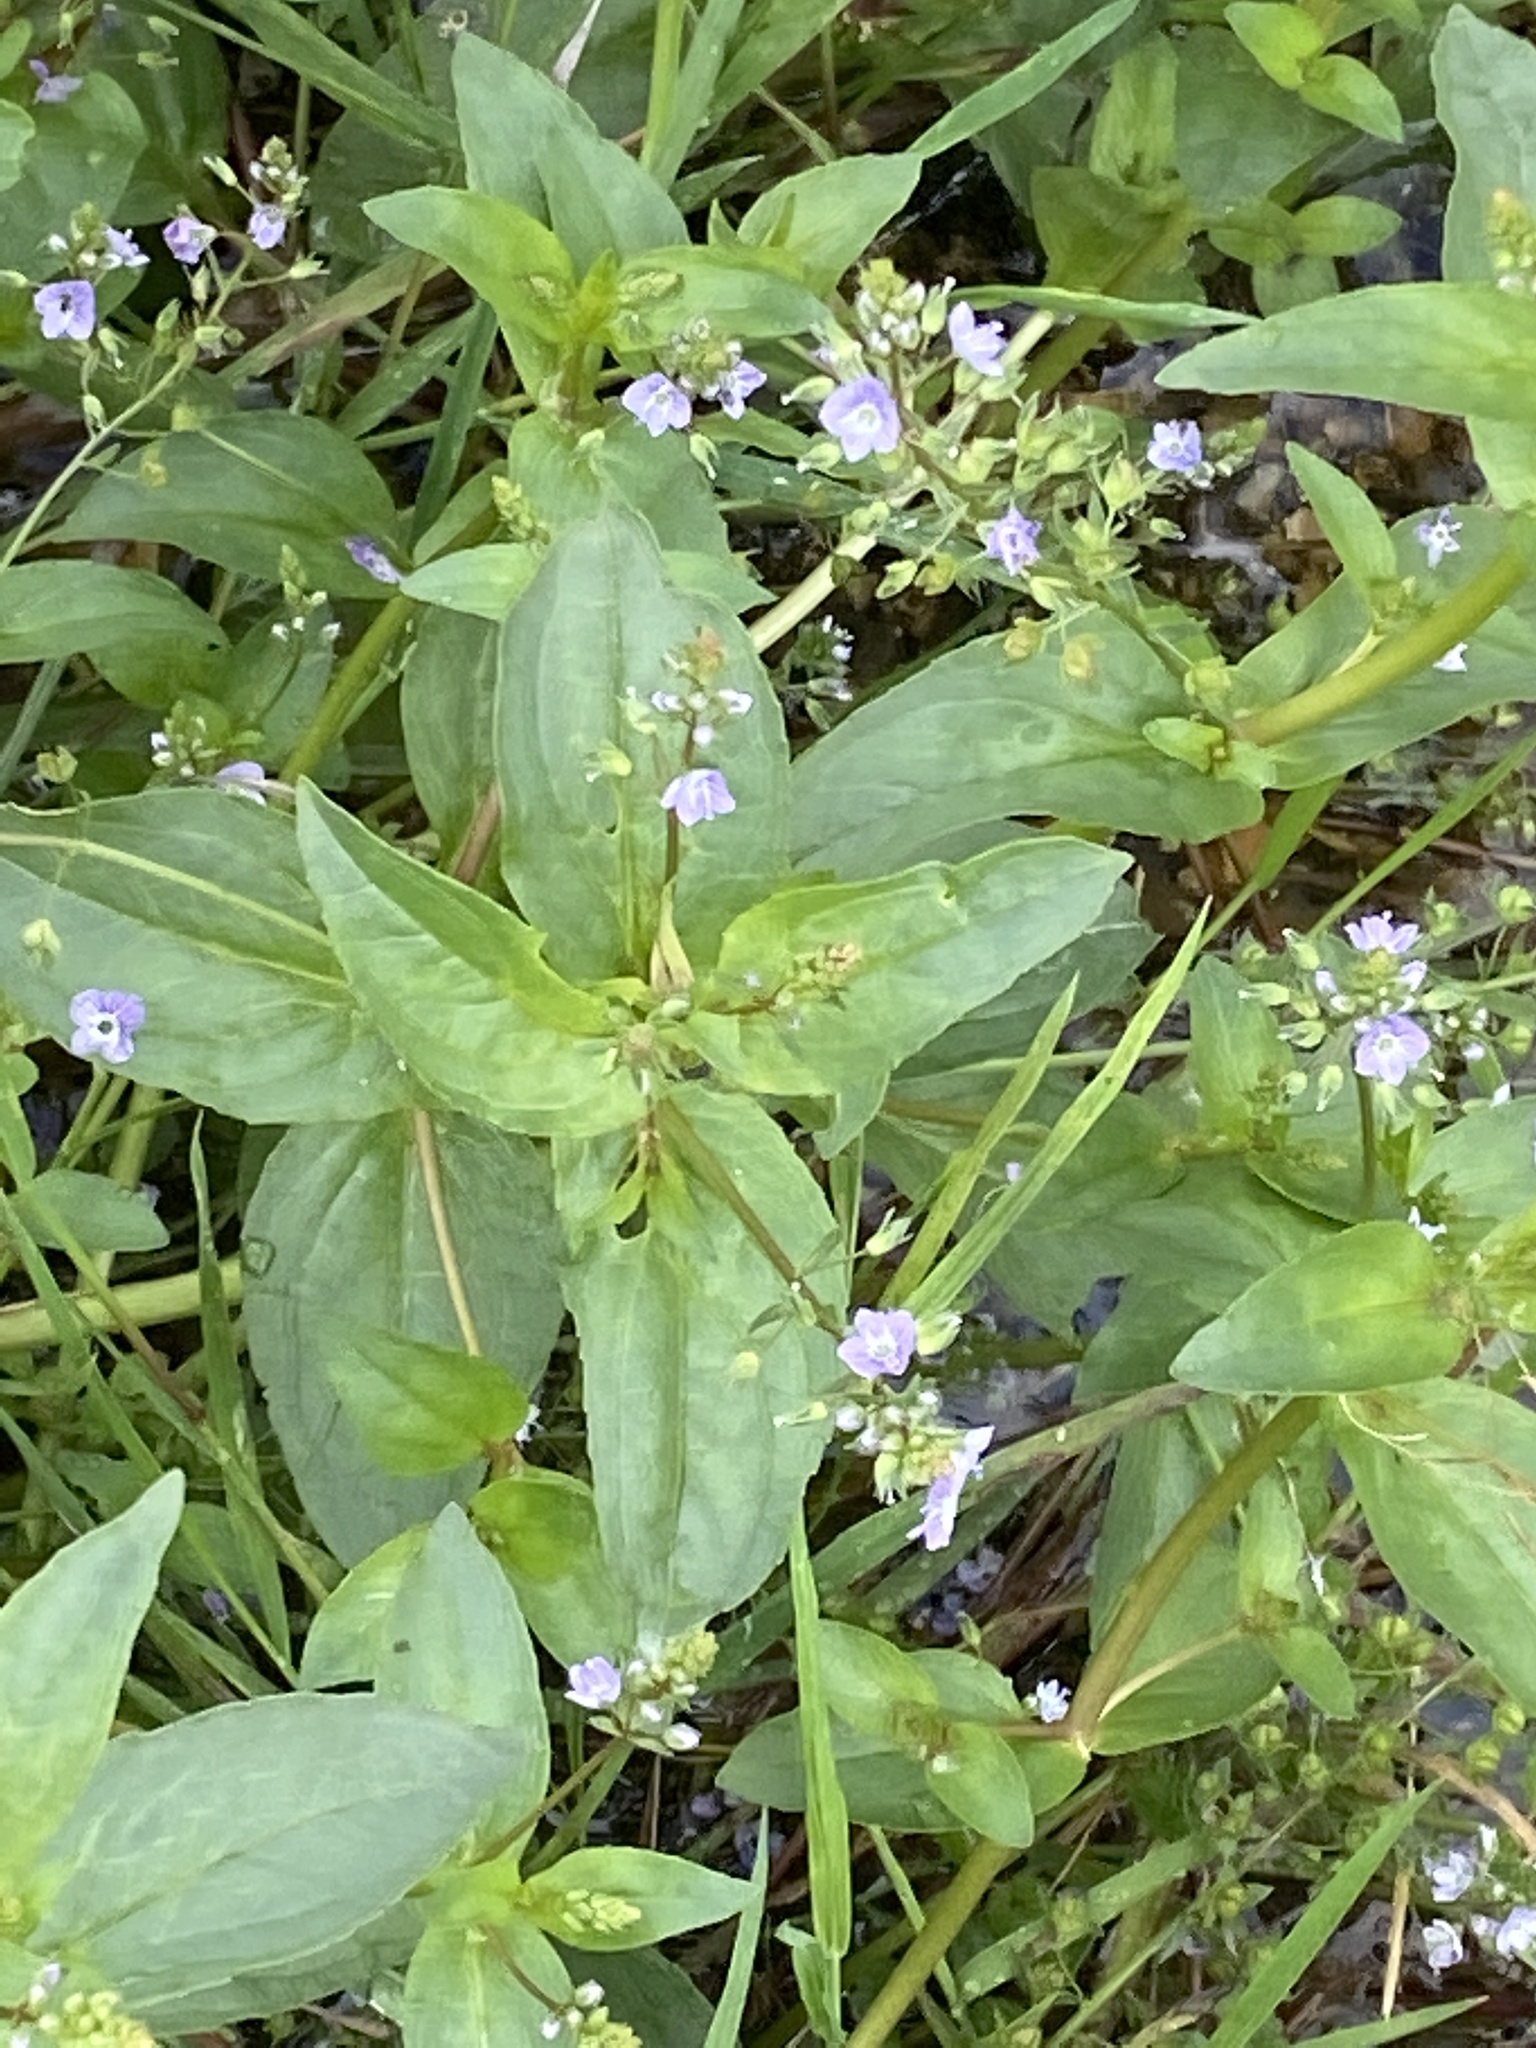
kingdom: Plantae
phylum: Tracheophyta
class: Magnoliopsida
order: Lamiales
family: Plantaginaceae
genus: Veronica
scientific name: Veronica anagallis-aquatica
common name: Water speedwell
